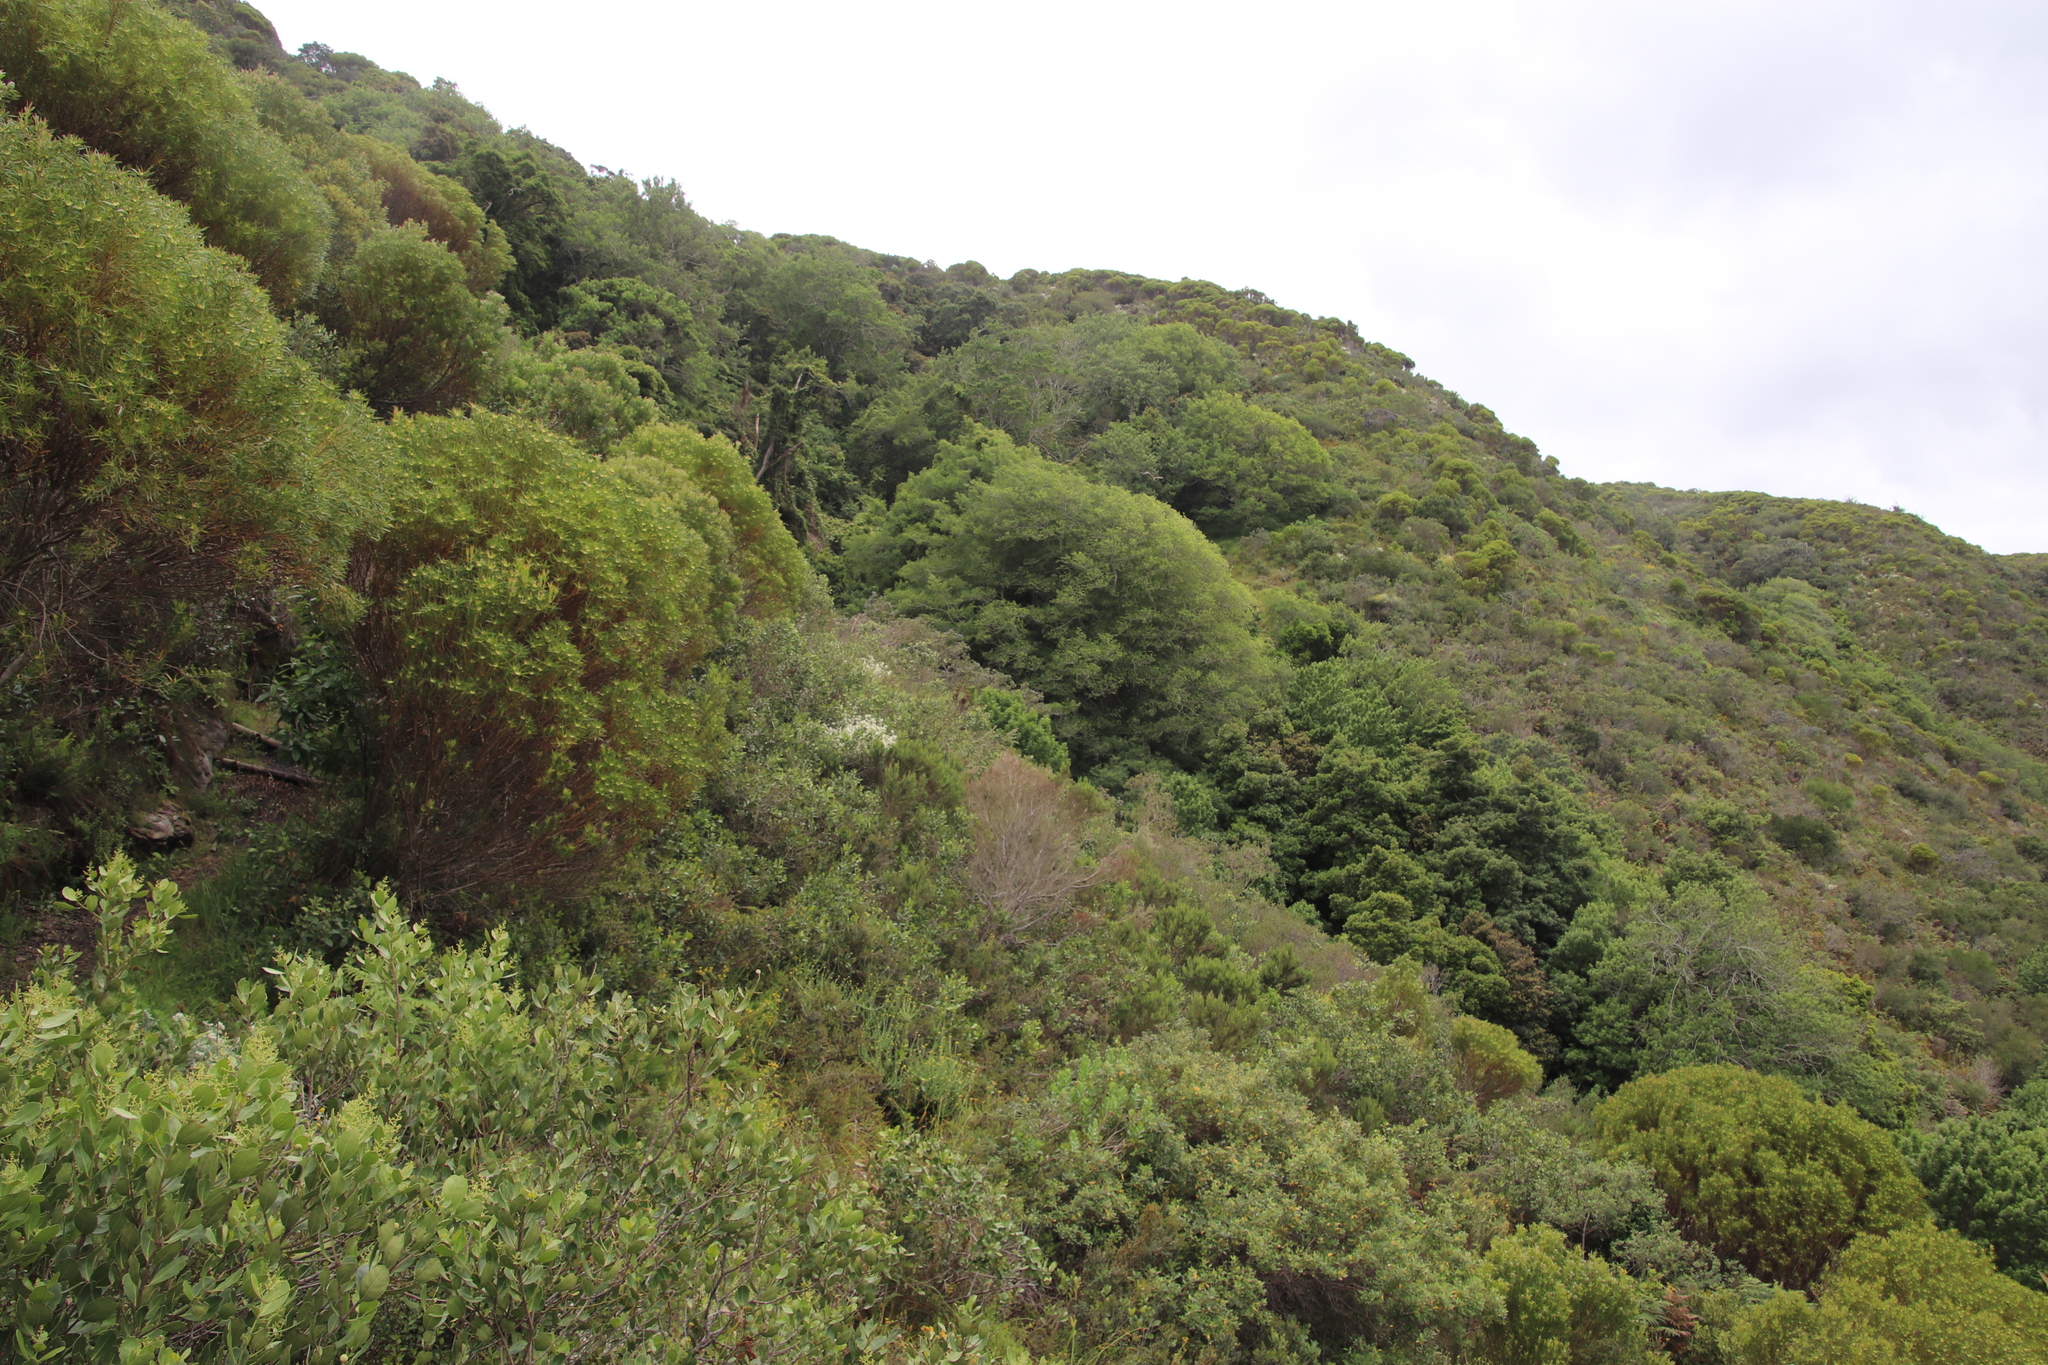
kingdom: Plantae
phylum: Tracheophyta
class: Magnoliopsida
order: Rosales
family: Cannabaceae
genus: Celtis
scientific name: Celtis africana
